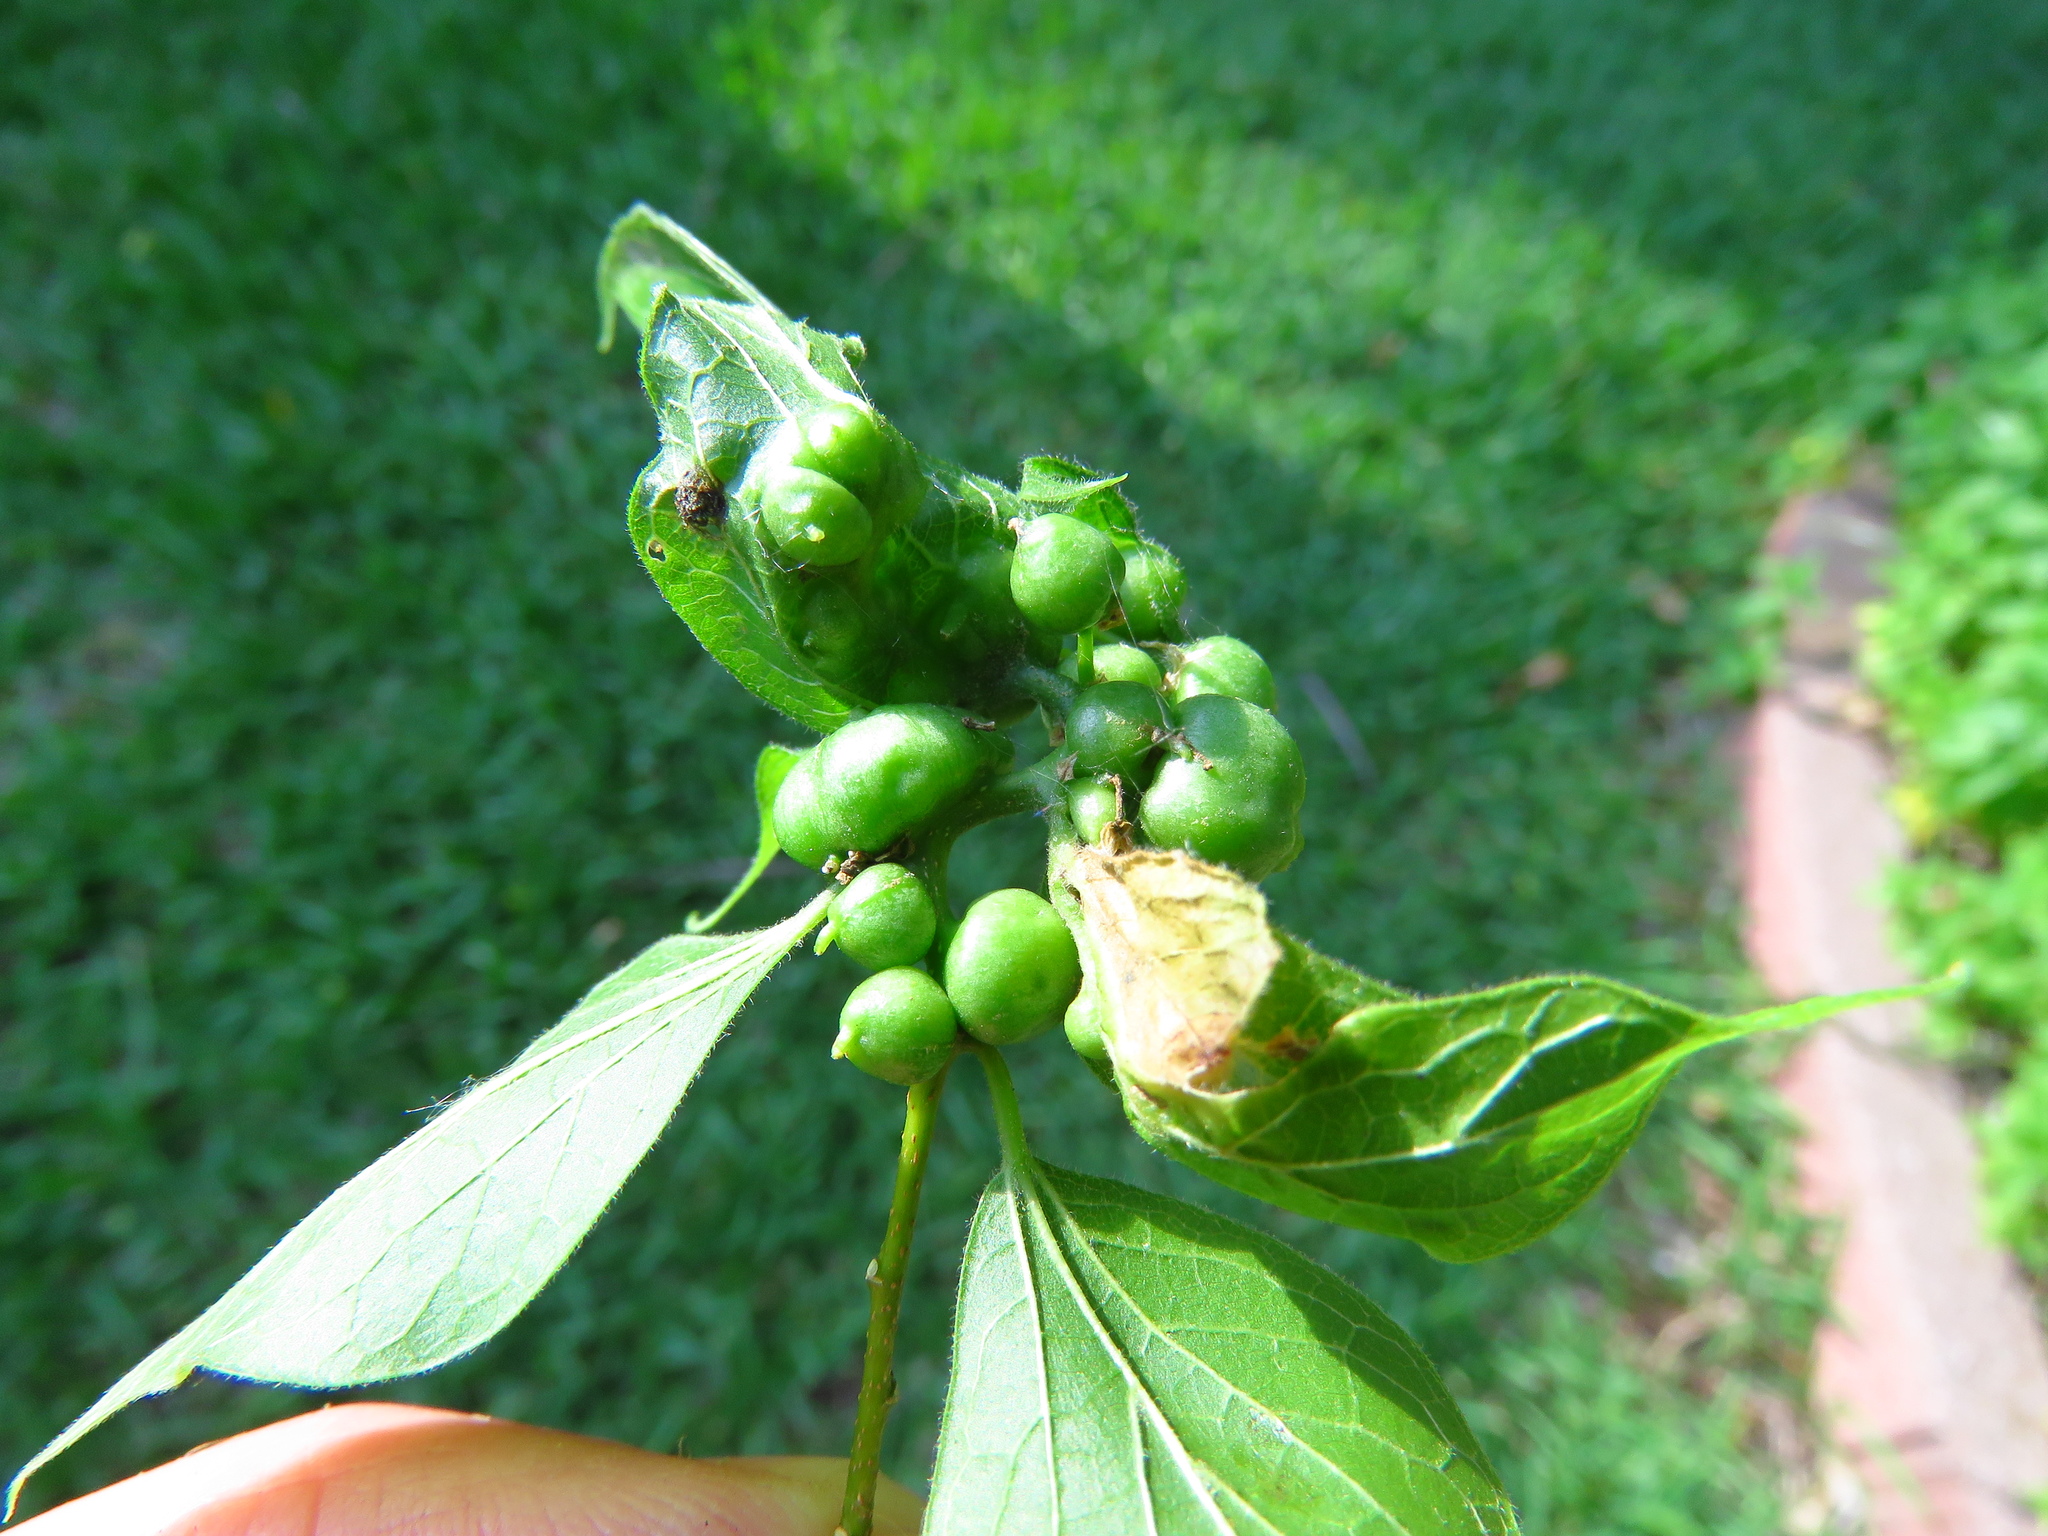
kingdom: Animalia
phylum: Arthropoda
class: Insecta
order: Diptera
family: Cecidomyiidae
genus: Celticecis
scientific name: Celticecis connata
